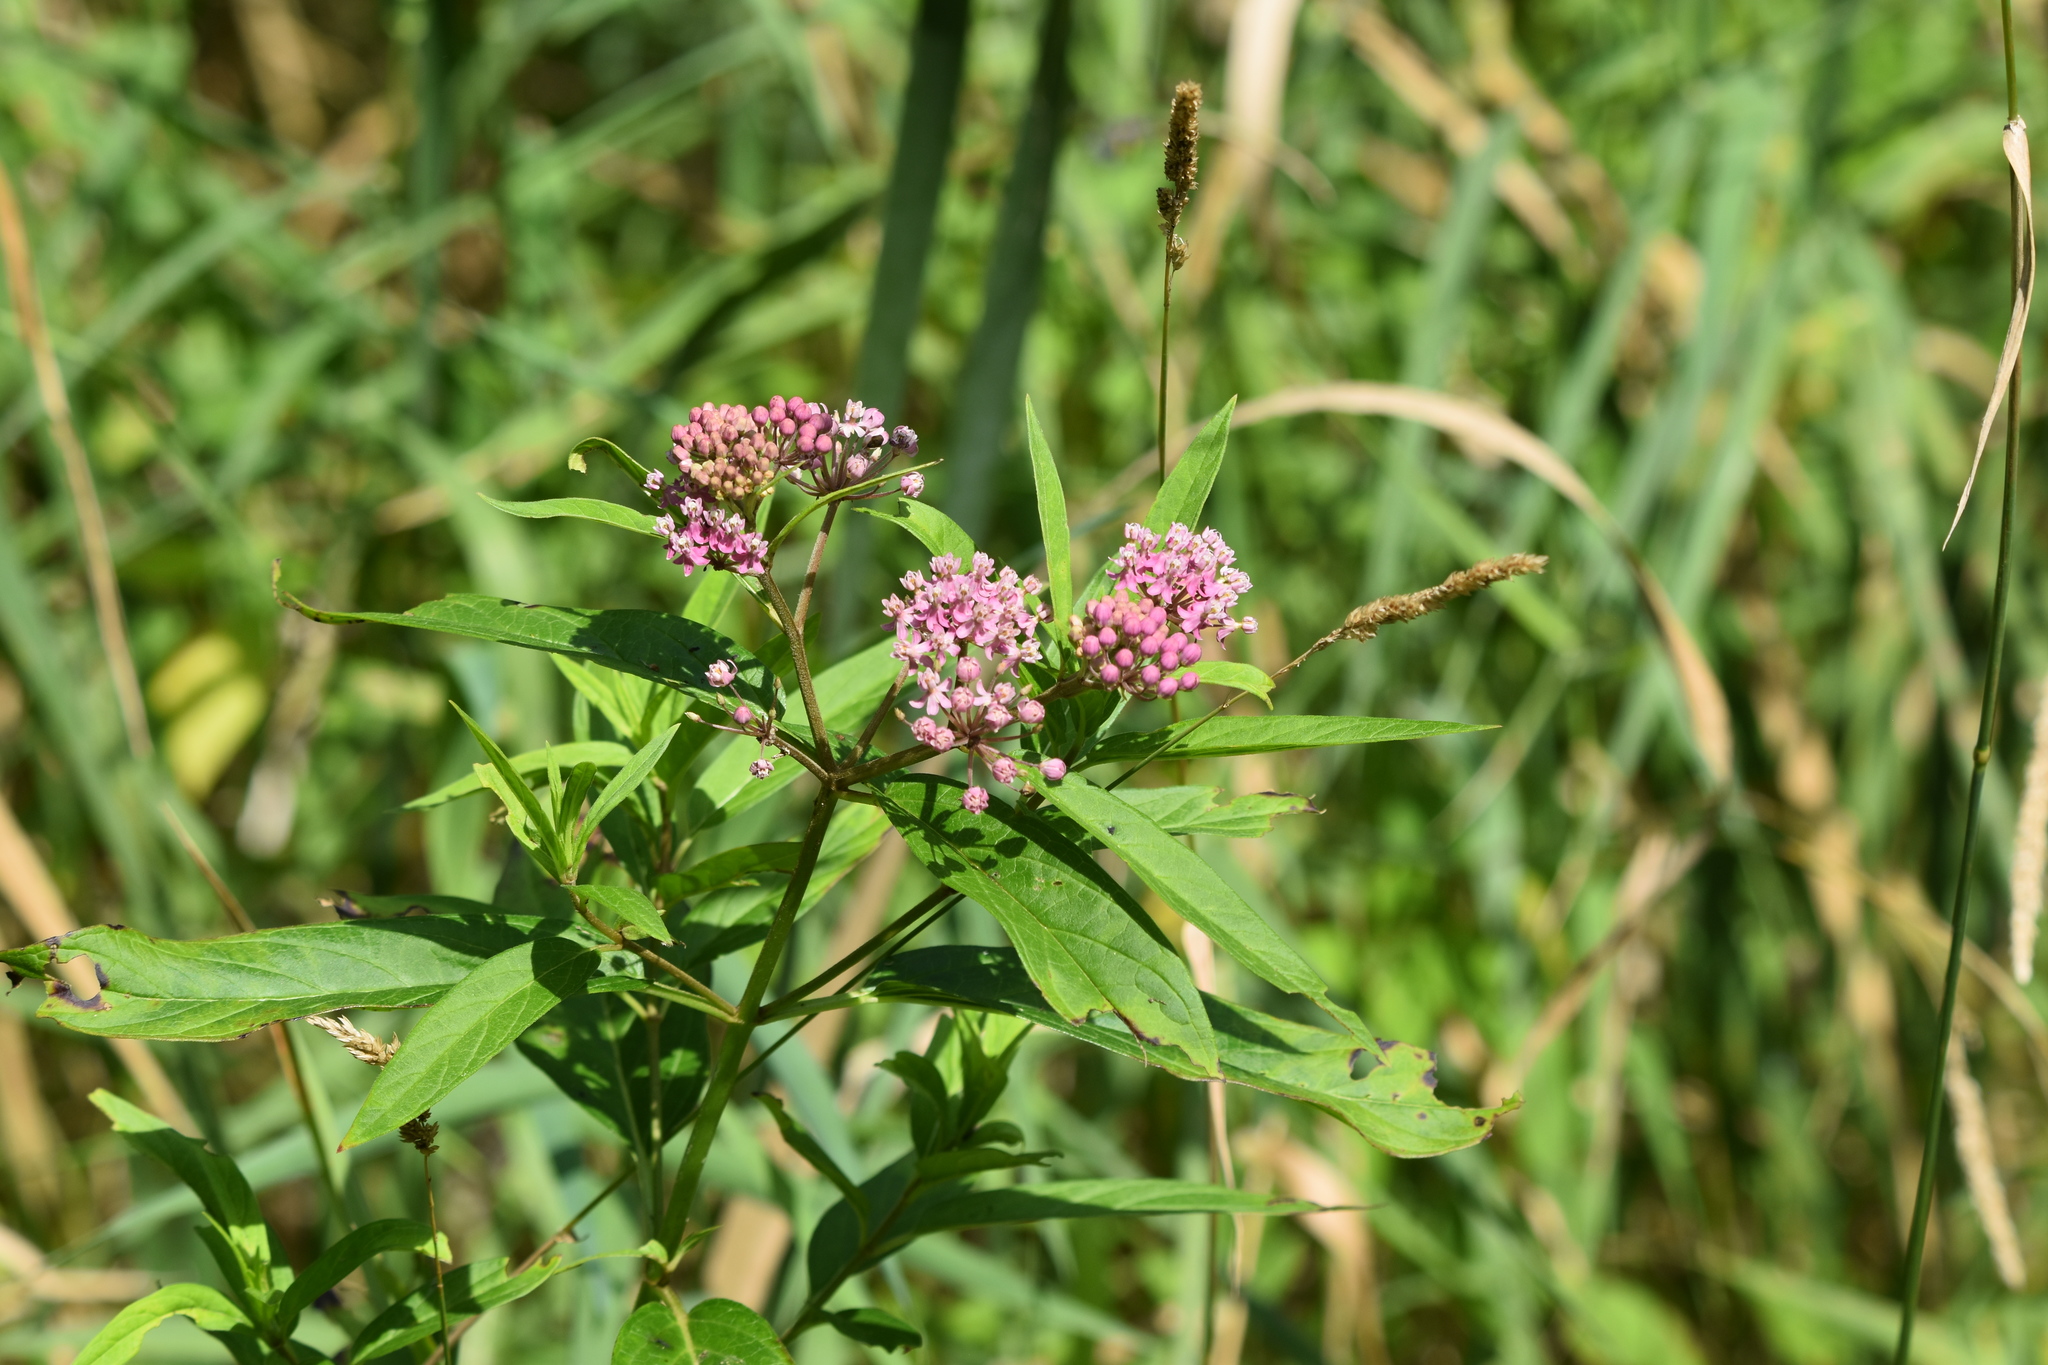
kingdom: Plantae
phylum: Tracheophyta
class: Magnoliopsida
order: Gentianales
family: Apocynaceae
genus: Asclepias
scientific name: Asclepias incarnata
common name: Swamp milkweed
